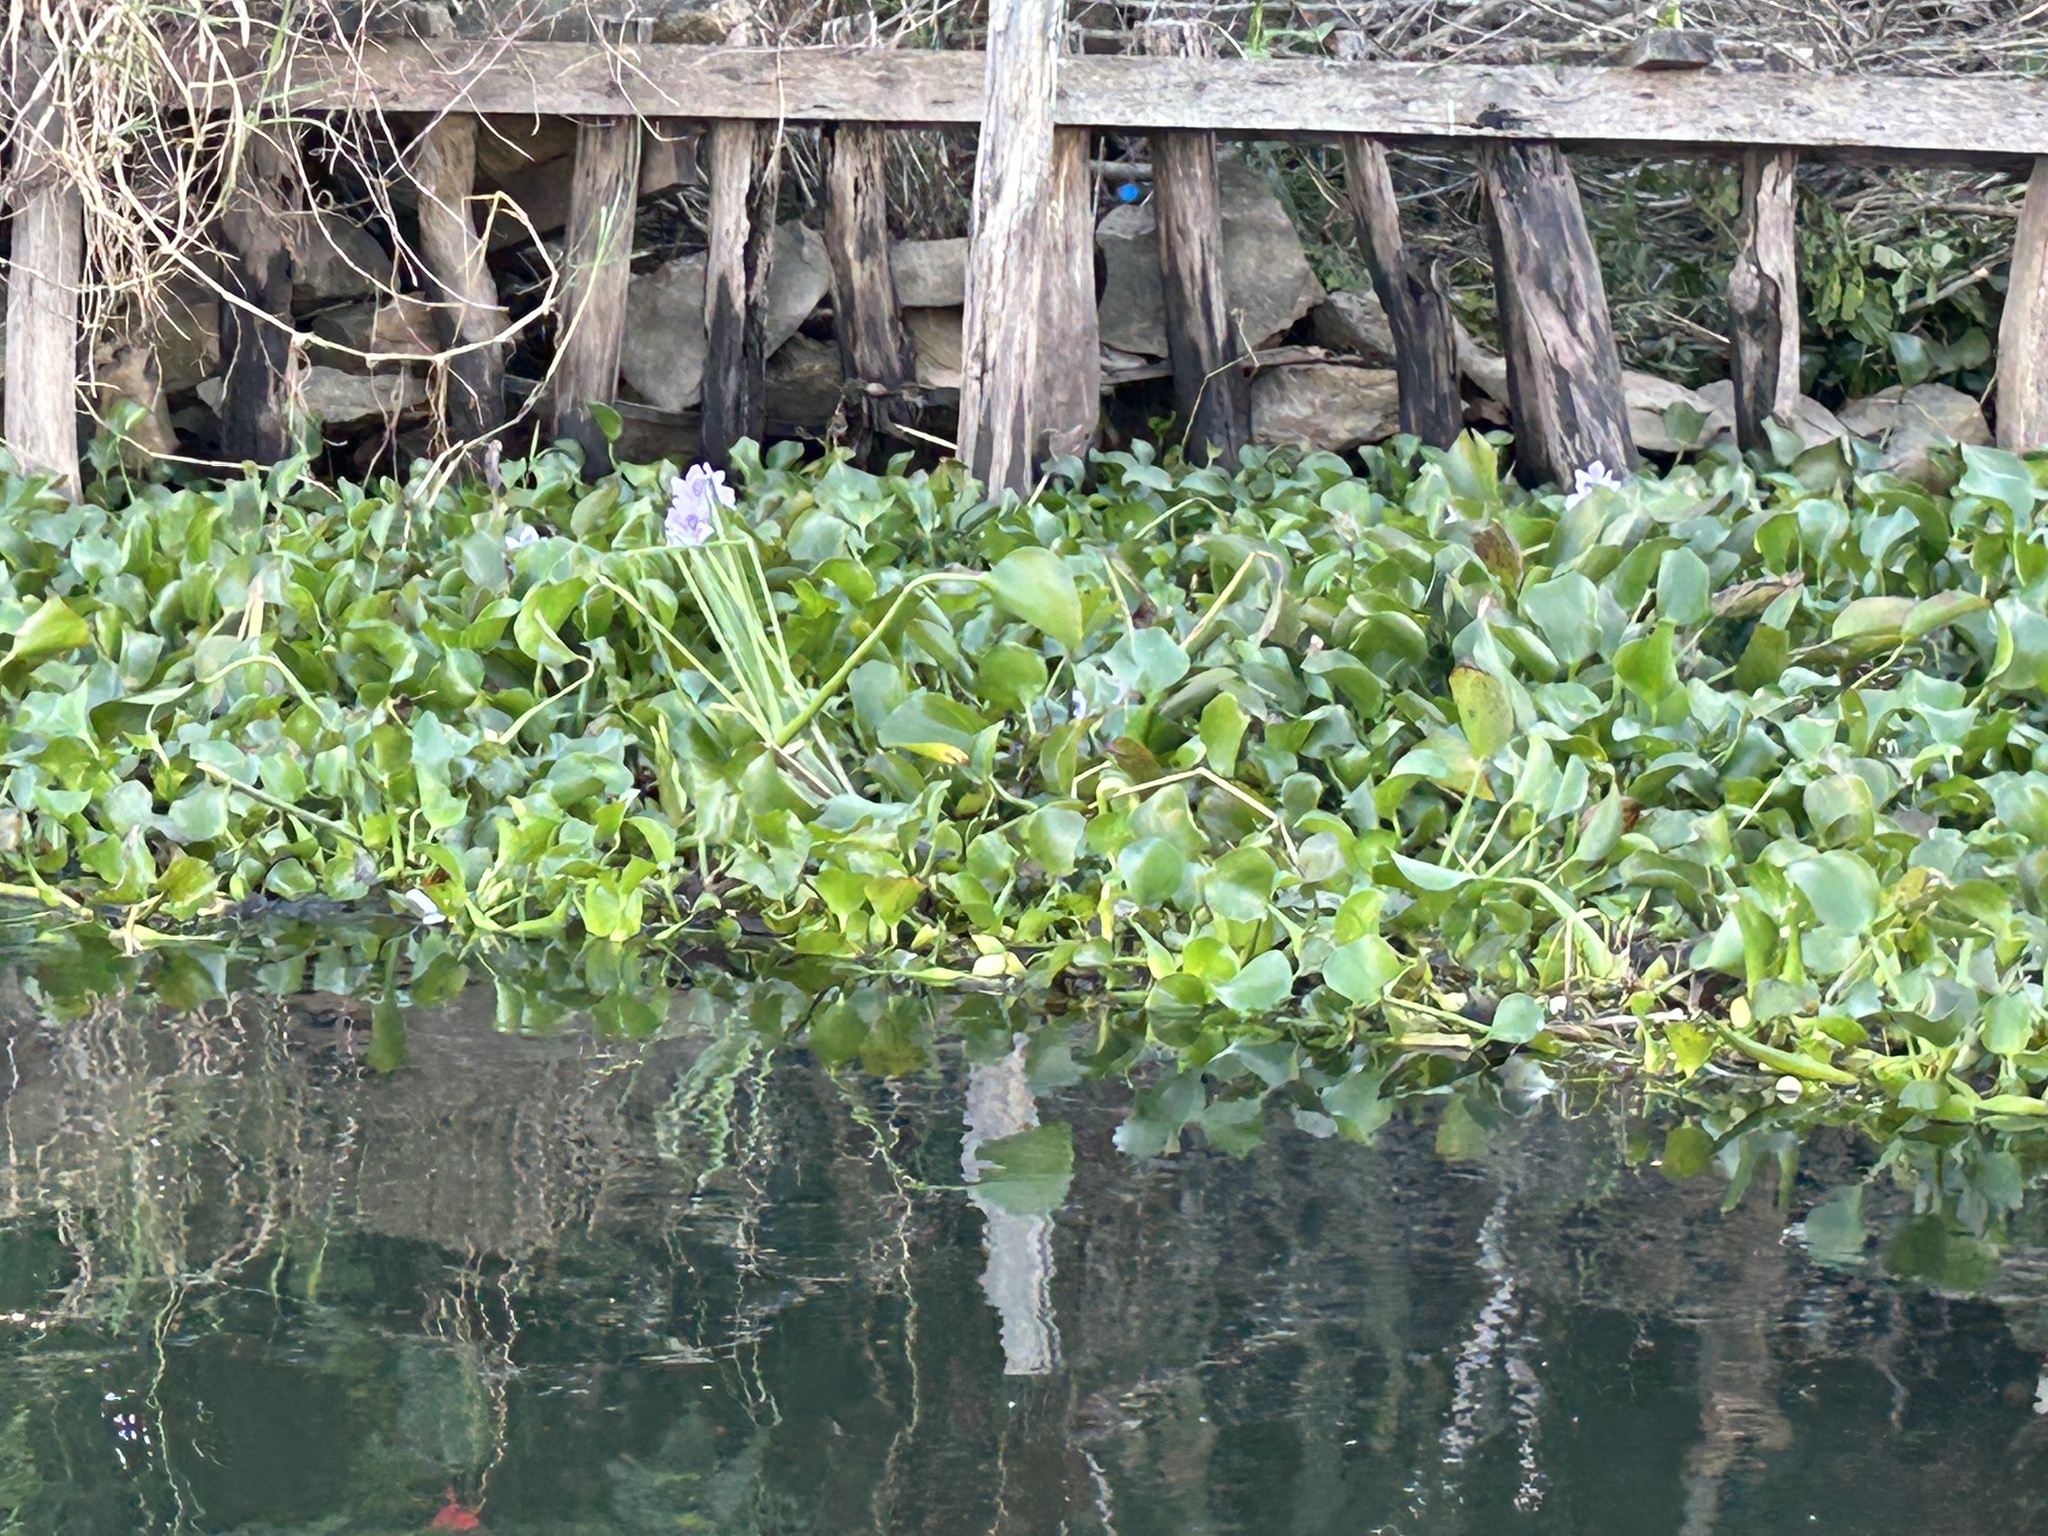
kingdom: Plantae
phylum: Tracheophyta
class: Liliopsida
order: Commelinales
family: Pontederiaceae
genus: Pontederia
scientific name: Pontederia crassipes
